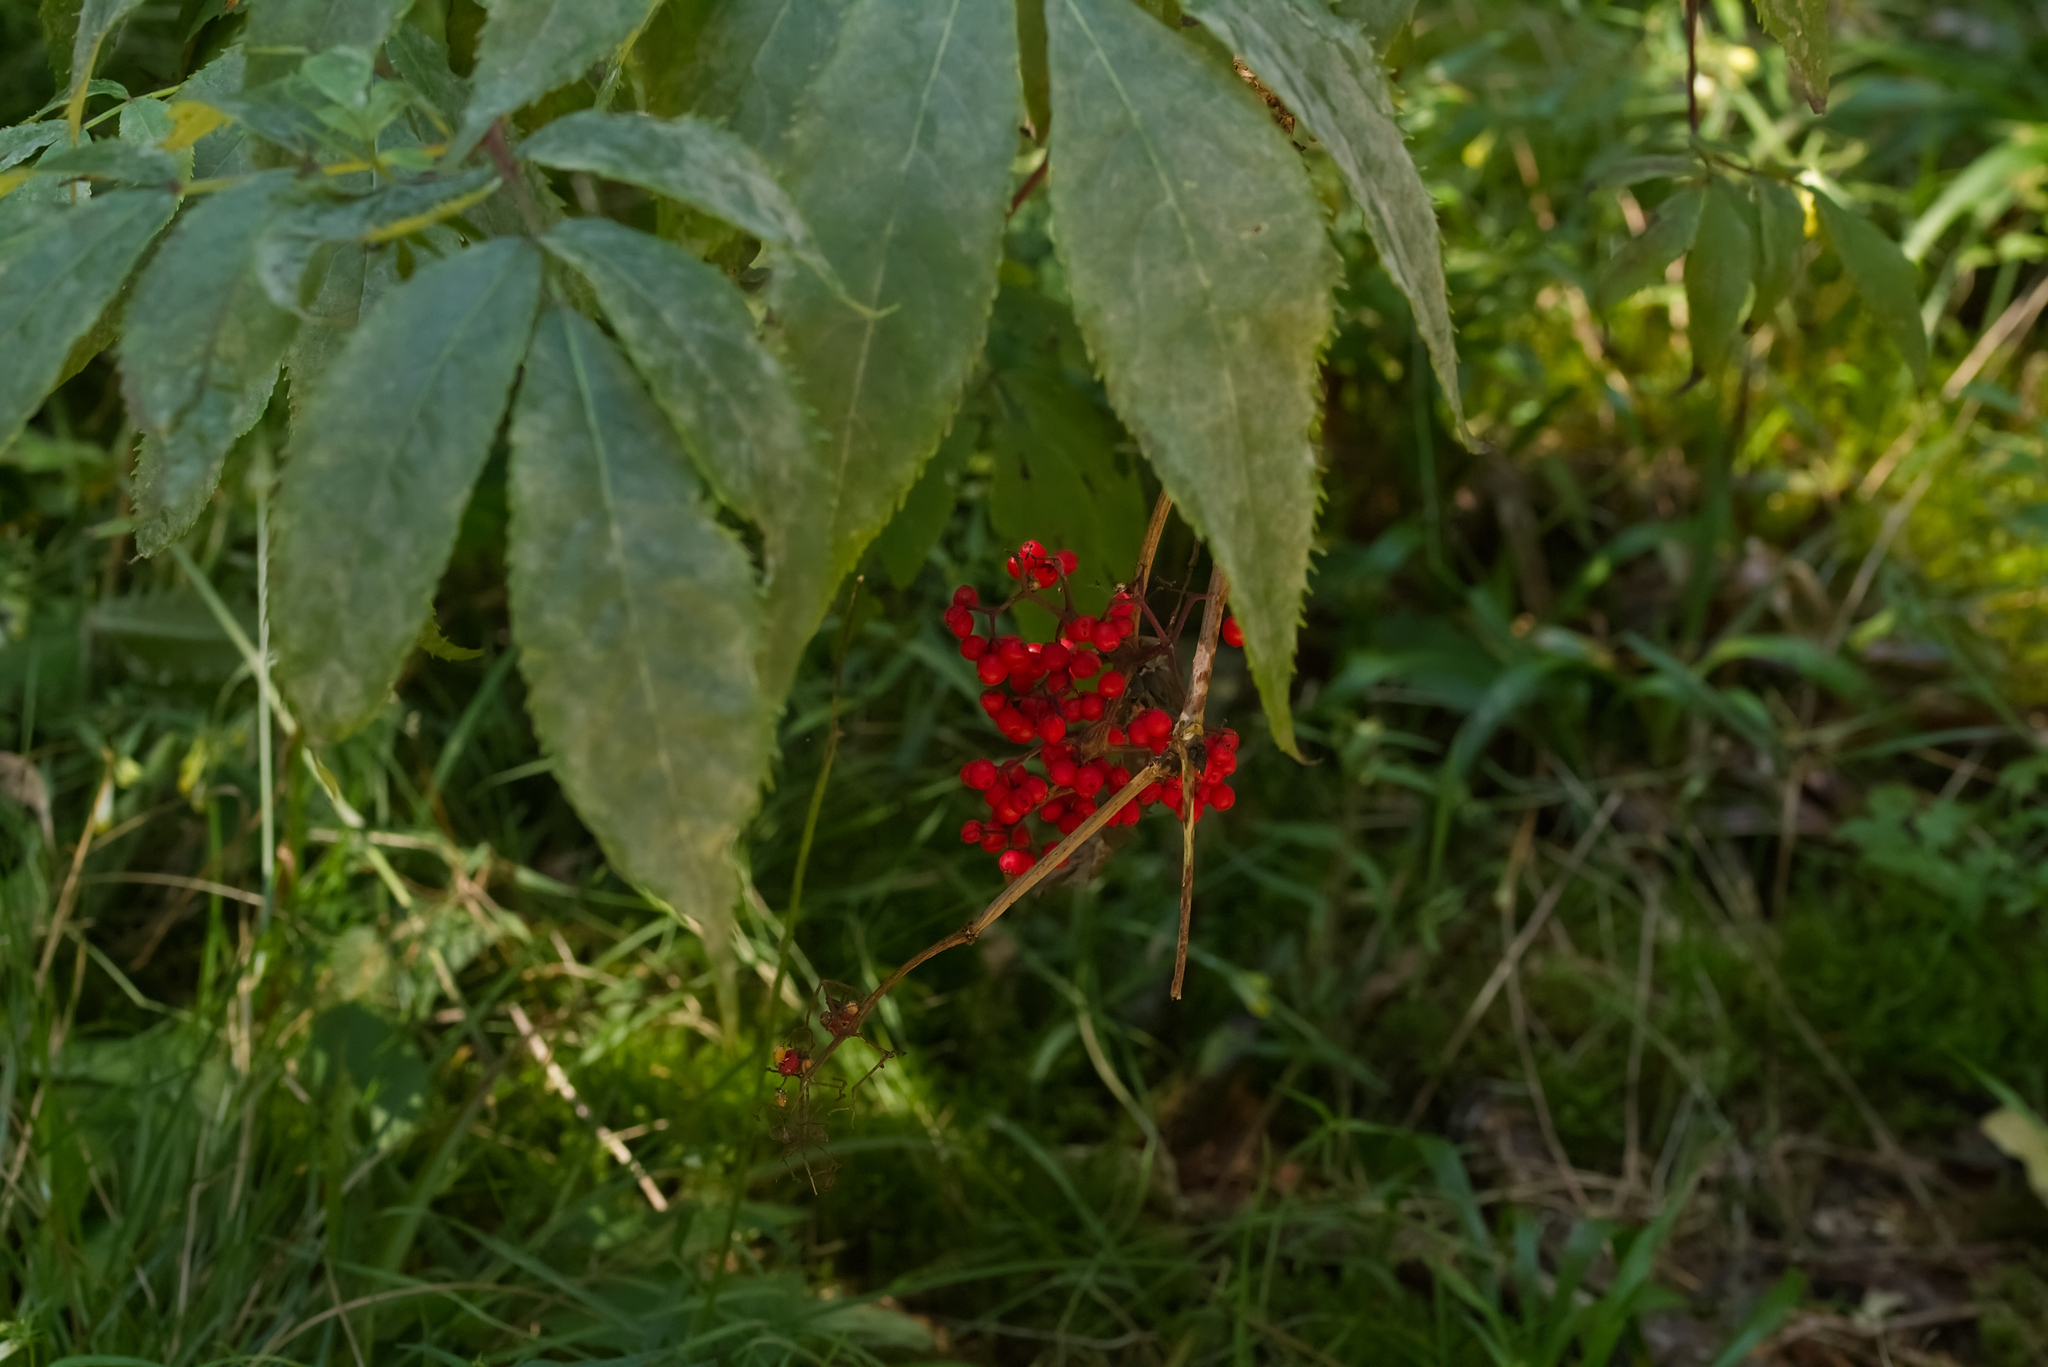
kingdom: Plantae
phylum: Tracheophyta
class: Magnoliopsida
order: Dipsacales
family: Viburnaceae
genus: Sambucus
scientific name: Sambucus racemosa
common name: Red-berried elder
